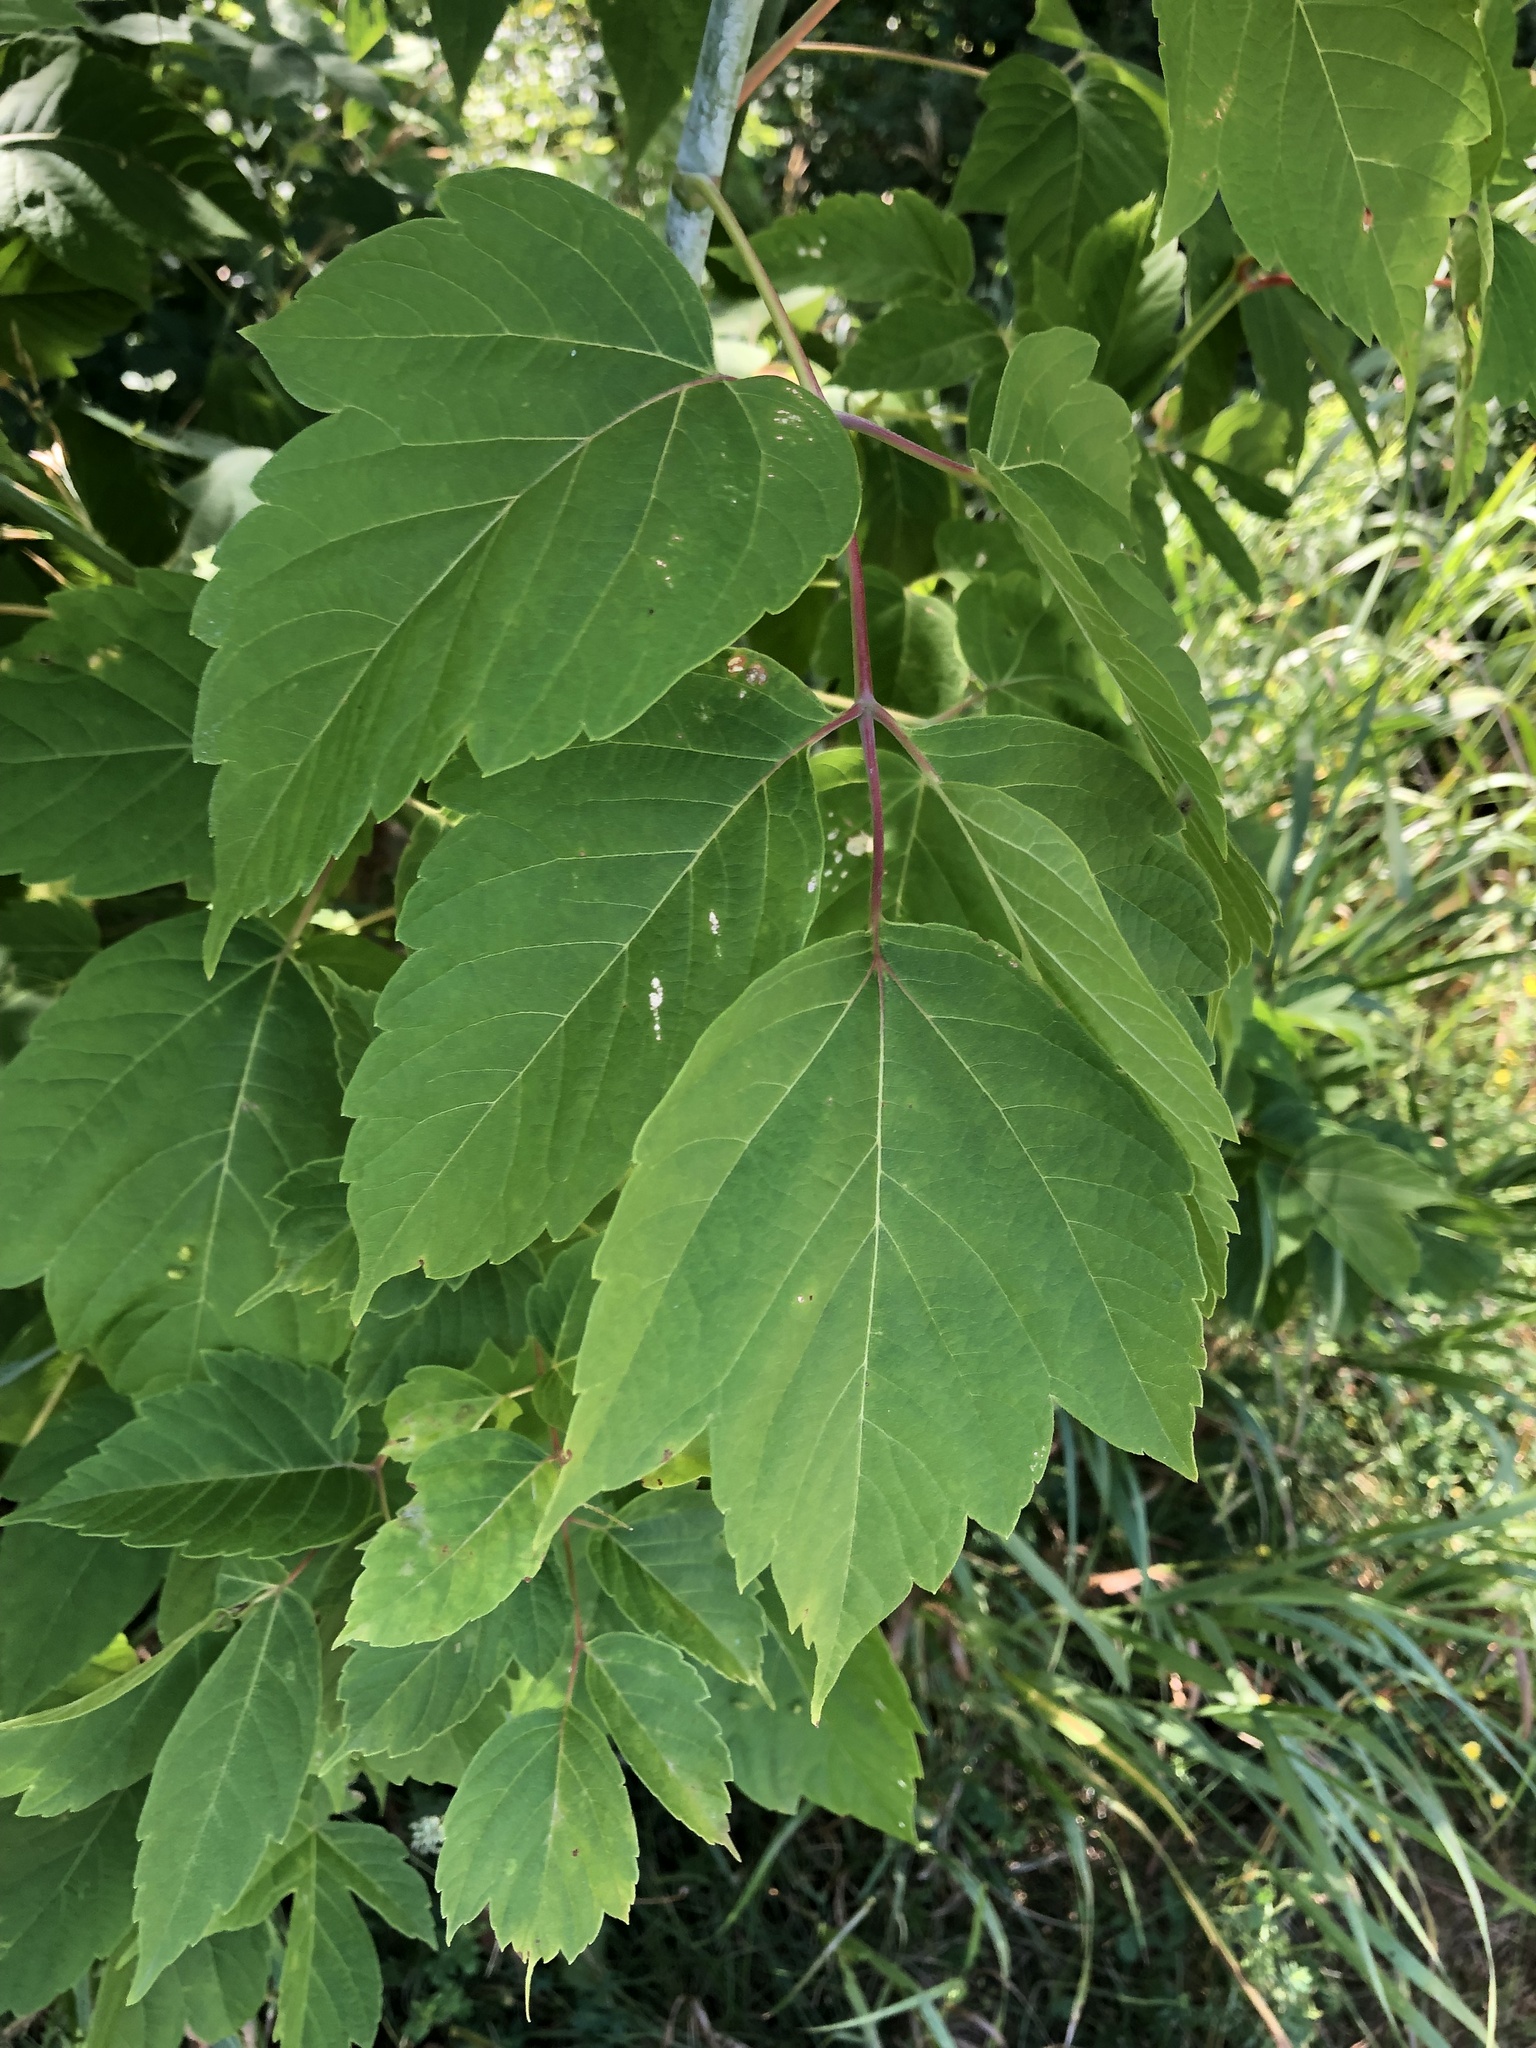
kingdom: Plantae
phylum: Tracheophyta
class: Magnoliopsida
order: Sapindales
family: Sapindaceae
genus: Acer
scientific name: Acer negundo
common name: Ashleaf maple
